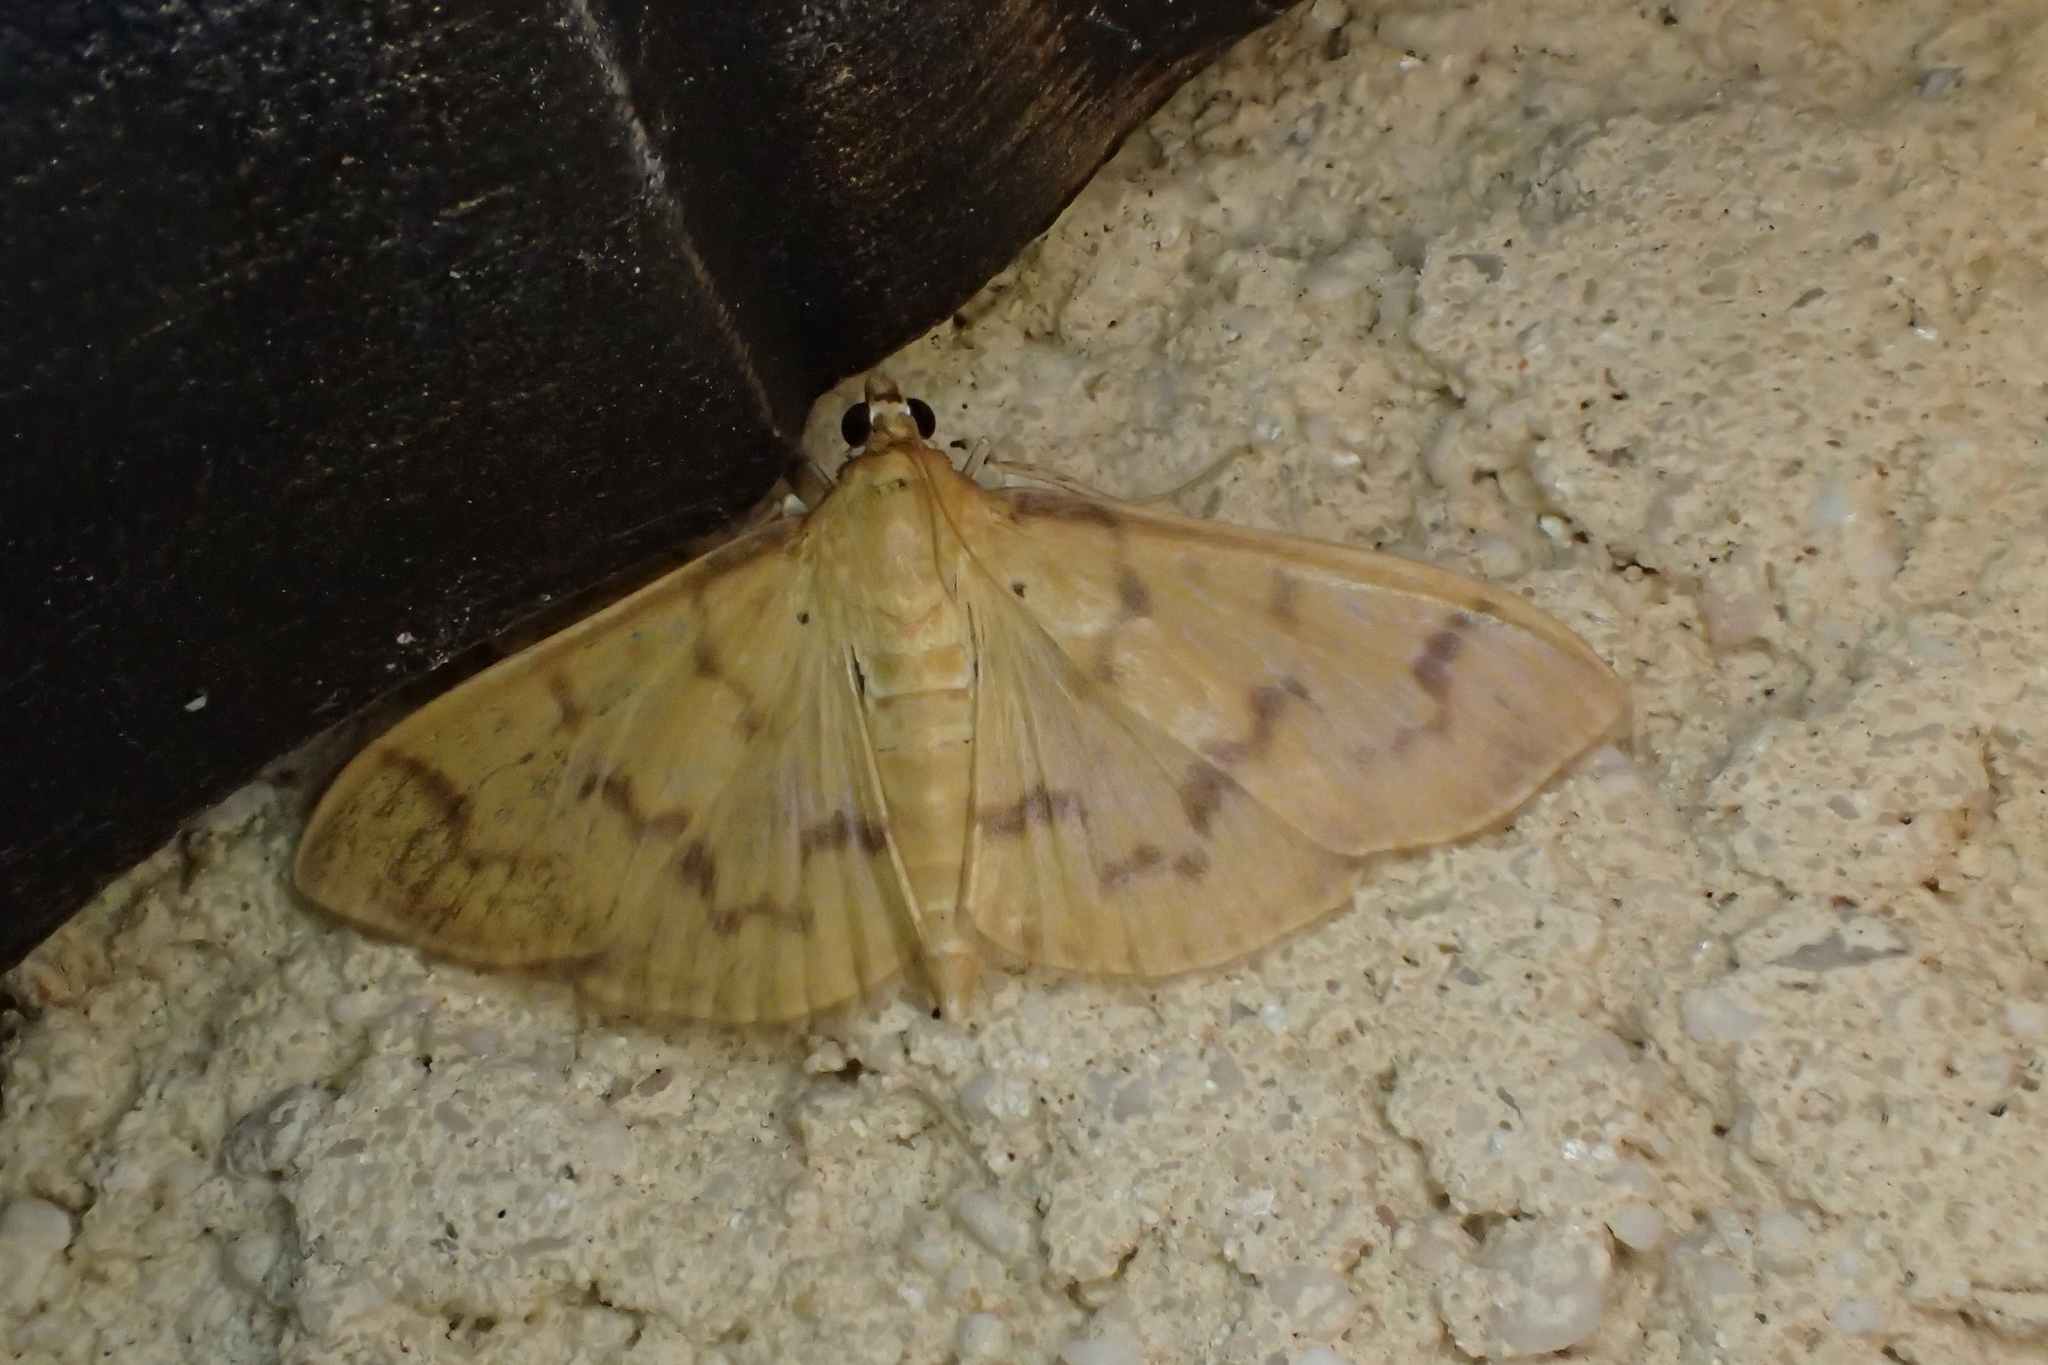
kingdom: Animalia
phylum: Arthropoda
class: Insecta
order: Lepidoptera
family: Crambidae
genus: Pleuroptya
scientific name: Pleuroptya balteata
